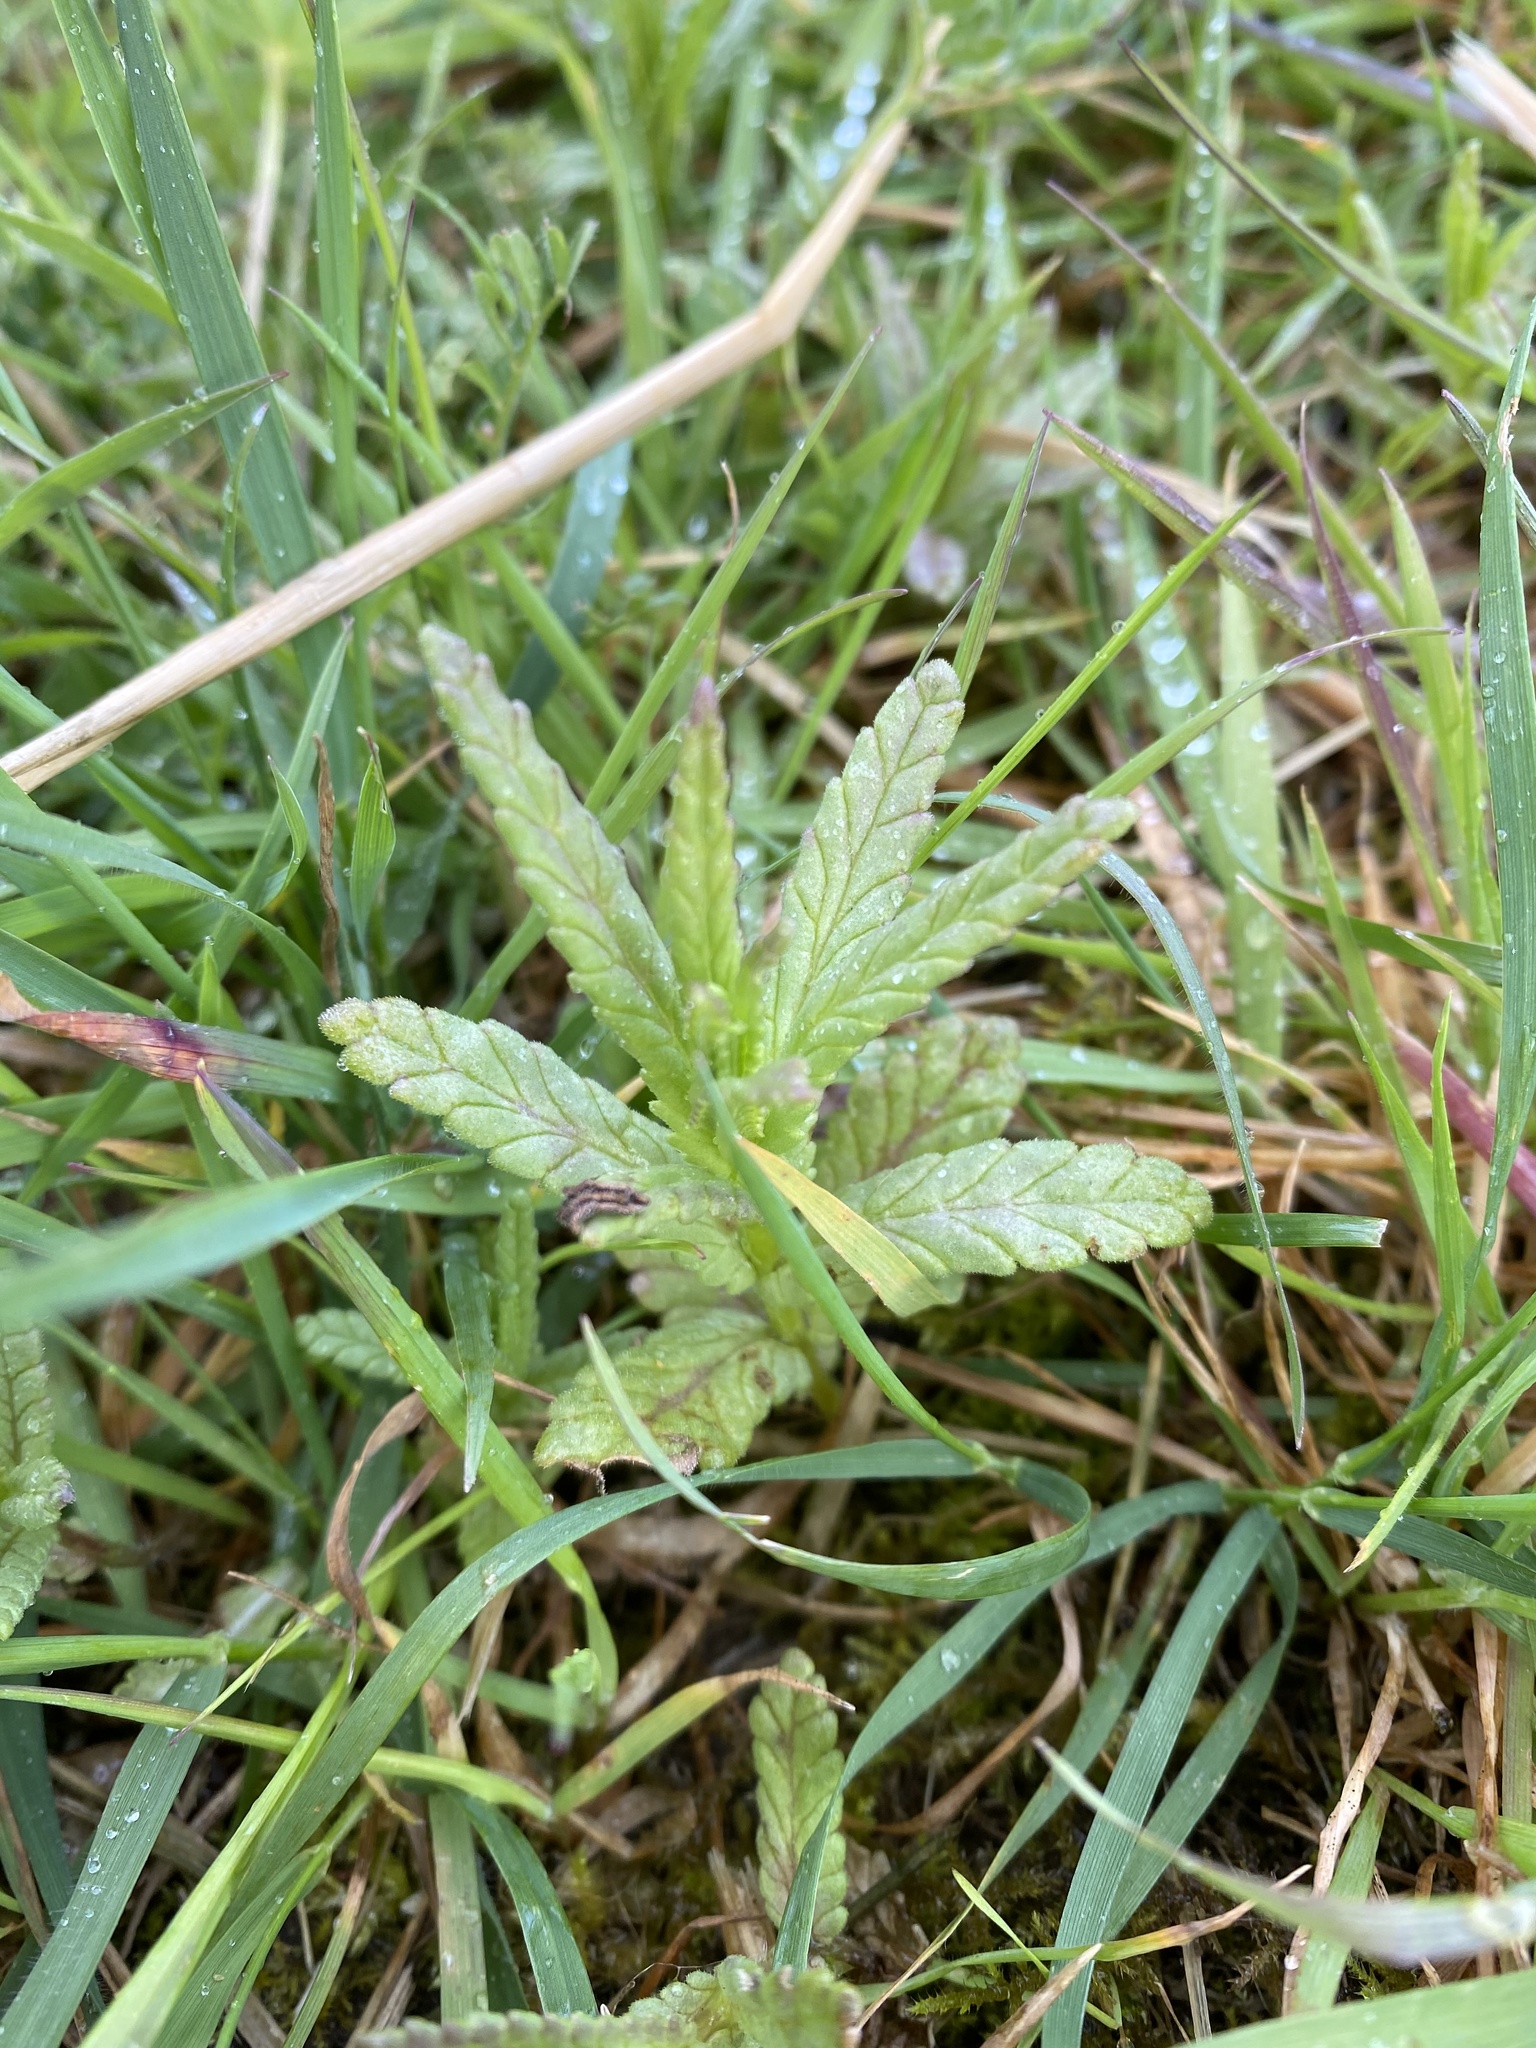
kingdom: Plantae
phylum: Tracheophyta
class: Magnoliopsida
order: Lamiales
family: Orobanchaceae
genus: Rhinanthus
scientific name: Rhinanthus minor
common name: Yellow-rattle
